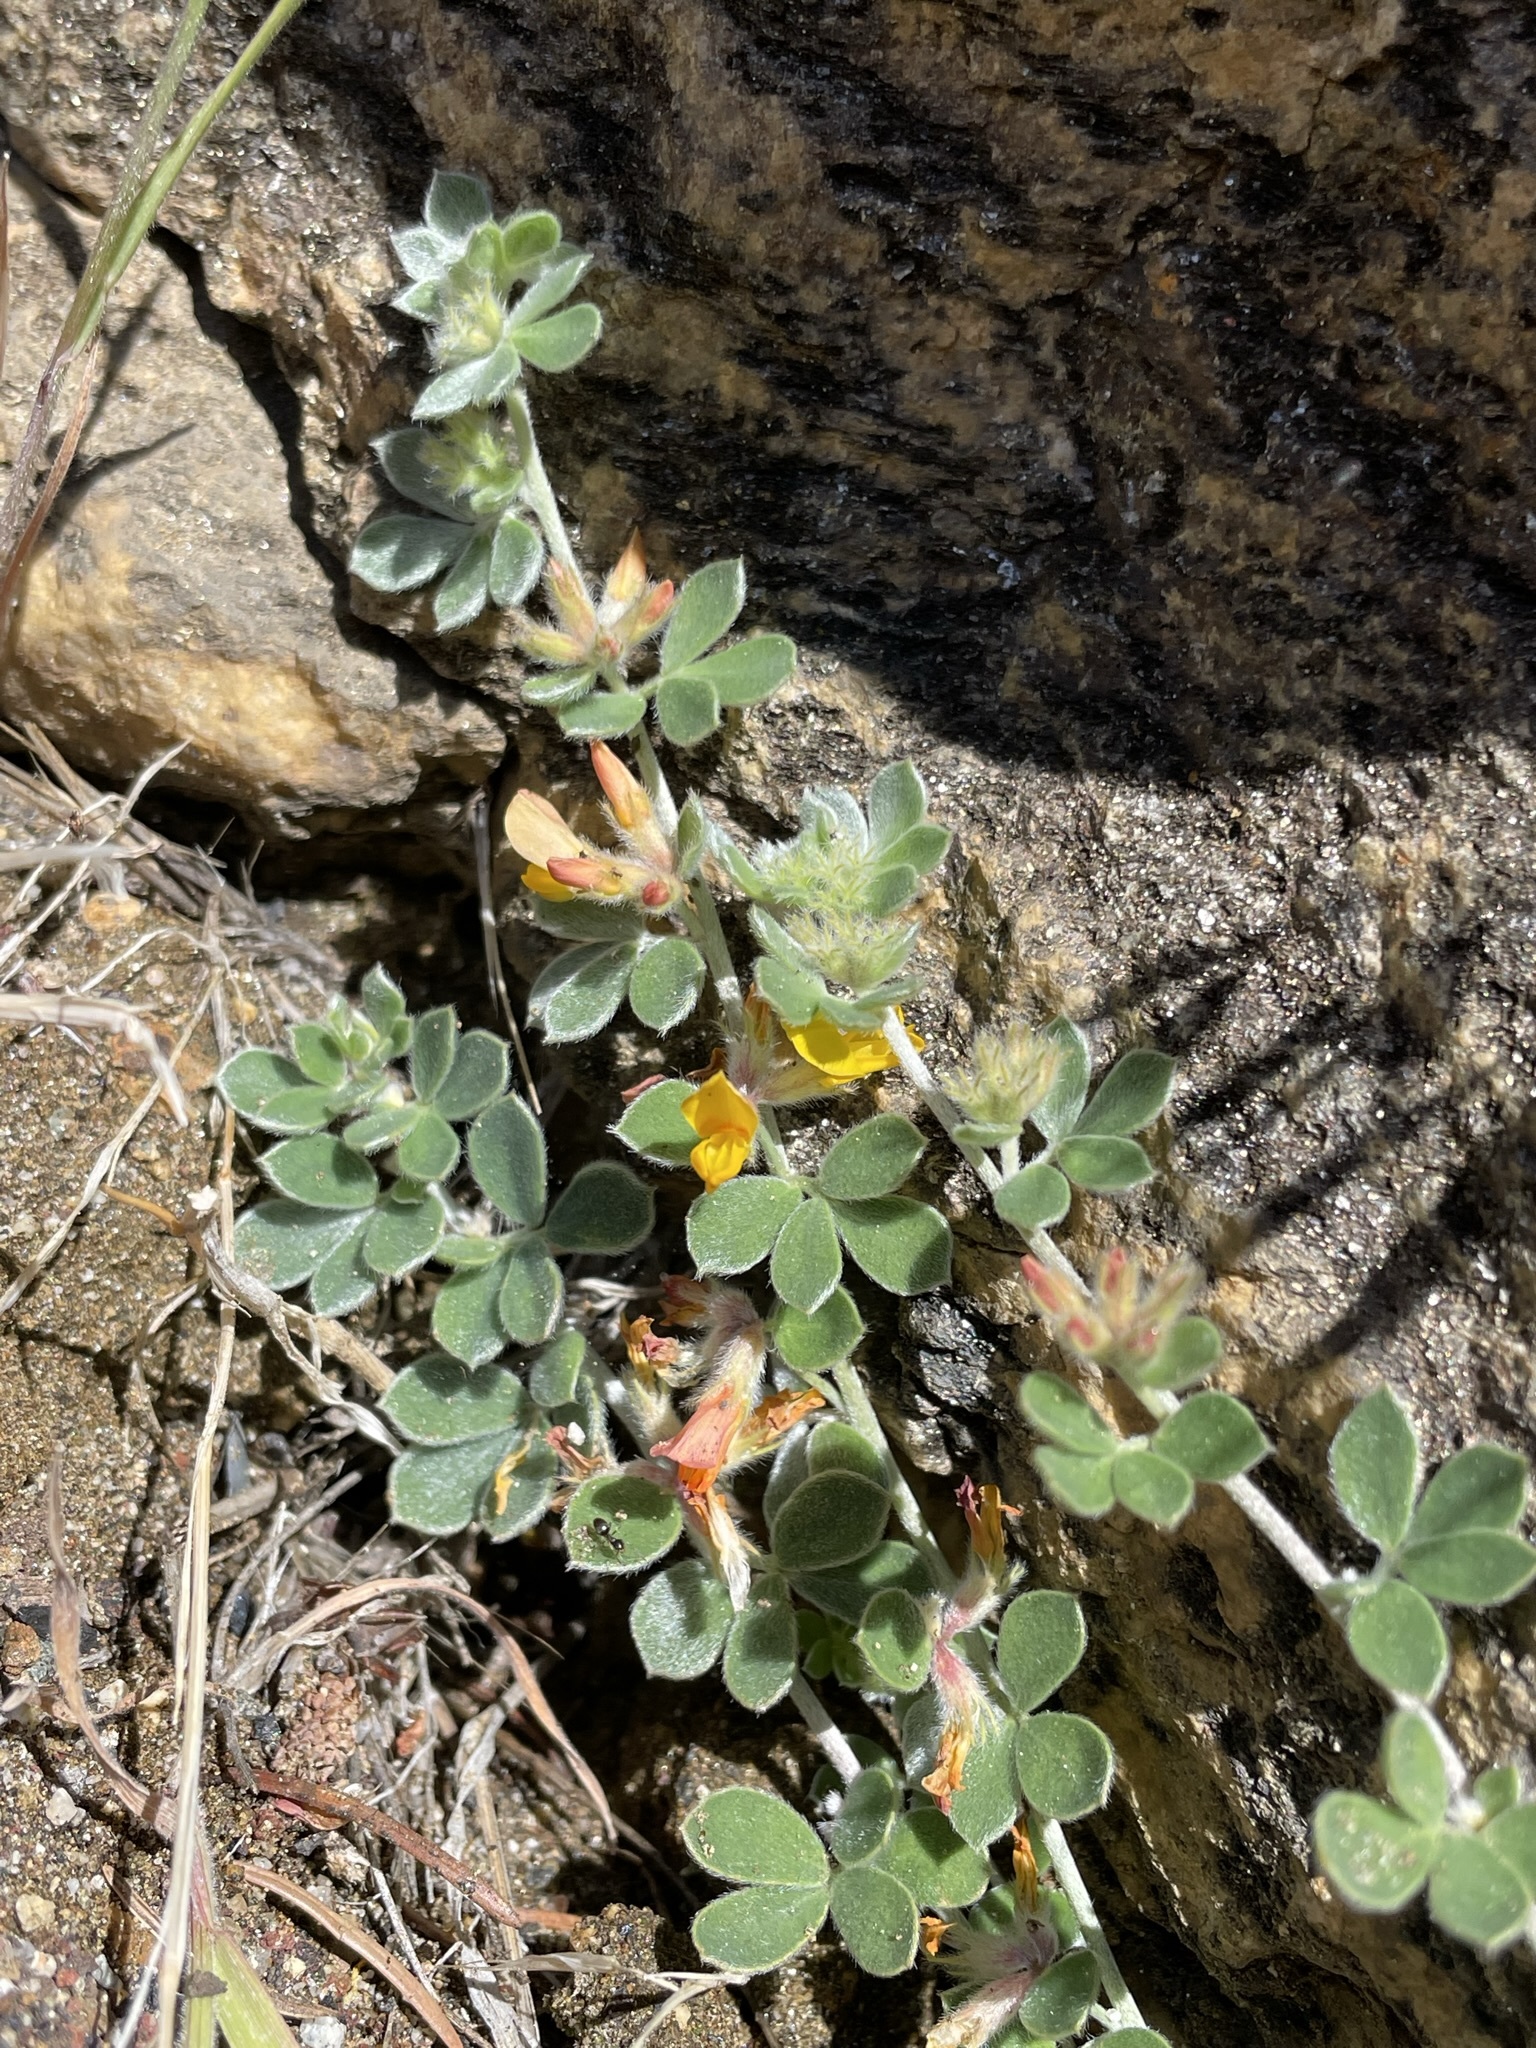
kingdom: Plantae
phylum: Tracheophyta
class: Magnoliopsida
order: Fabales
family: Fabaceae
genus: Acmispon
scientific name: Acmispon argophyllus
